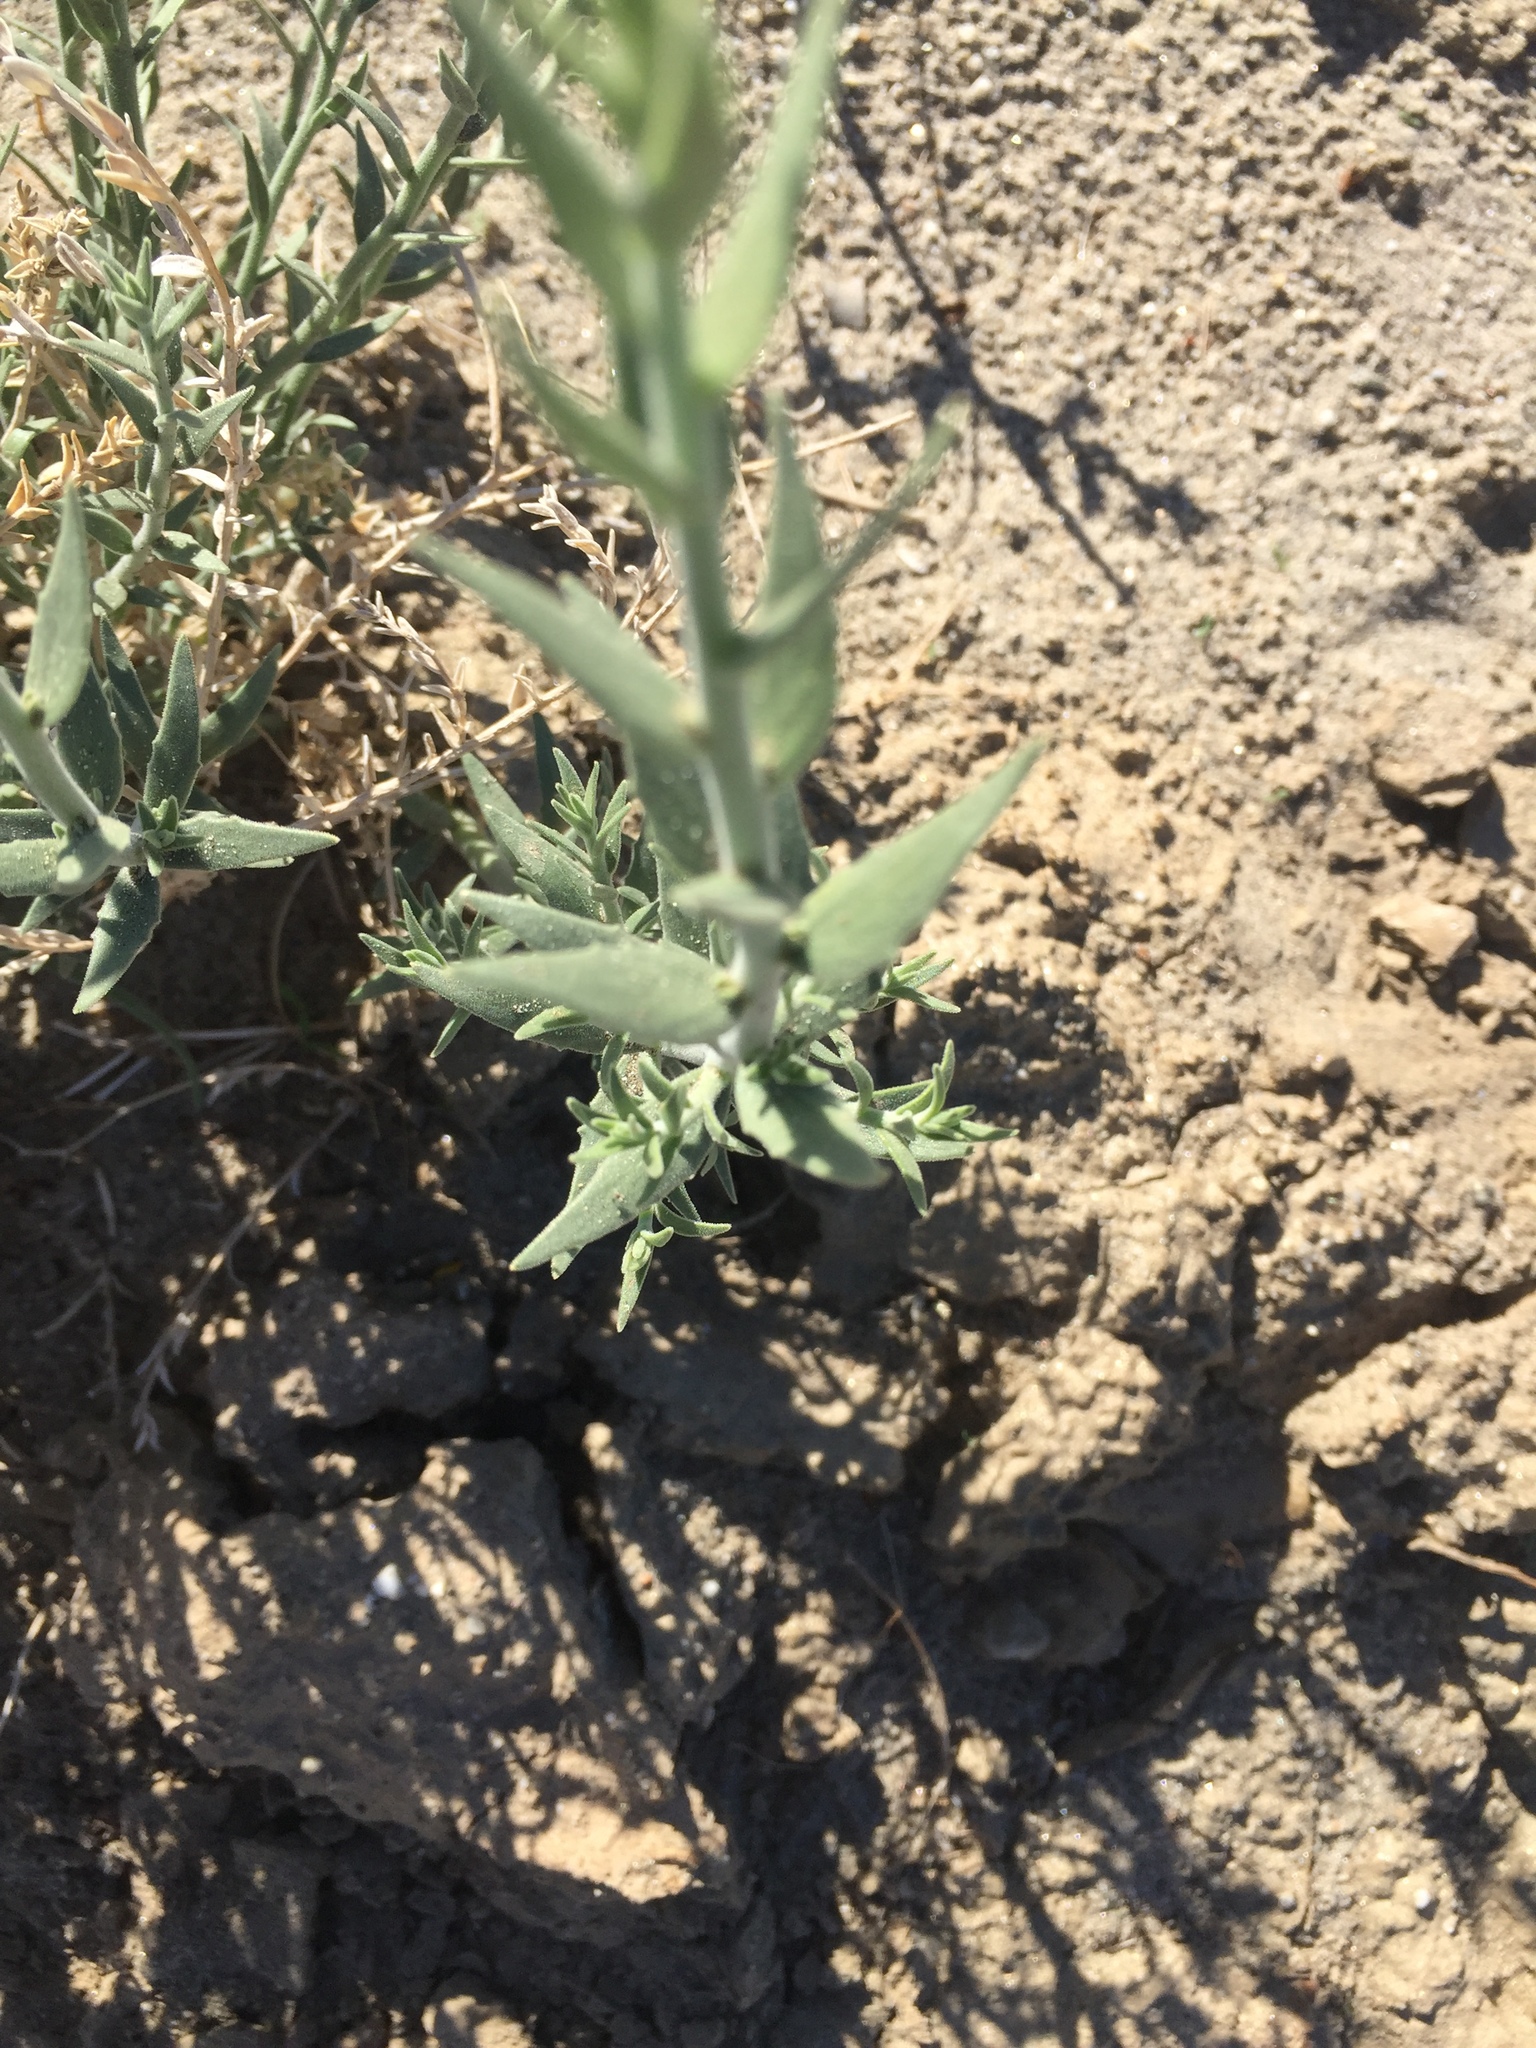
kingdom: Plantae
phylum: Tracheophyta
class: Magnoliopsida
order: Cornales
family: Loasaceae
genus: Petalonyx
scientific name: Petalonyx thurberi
